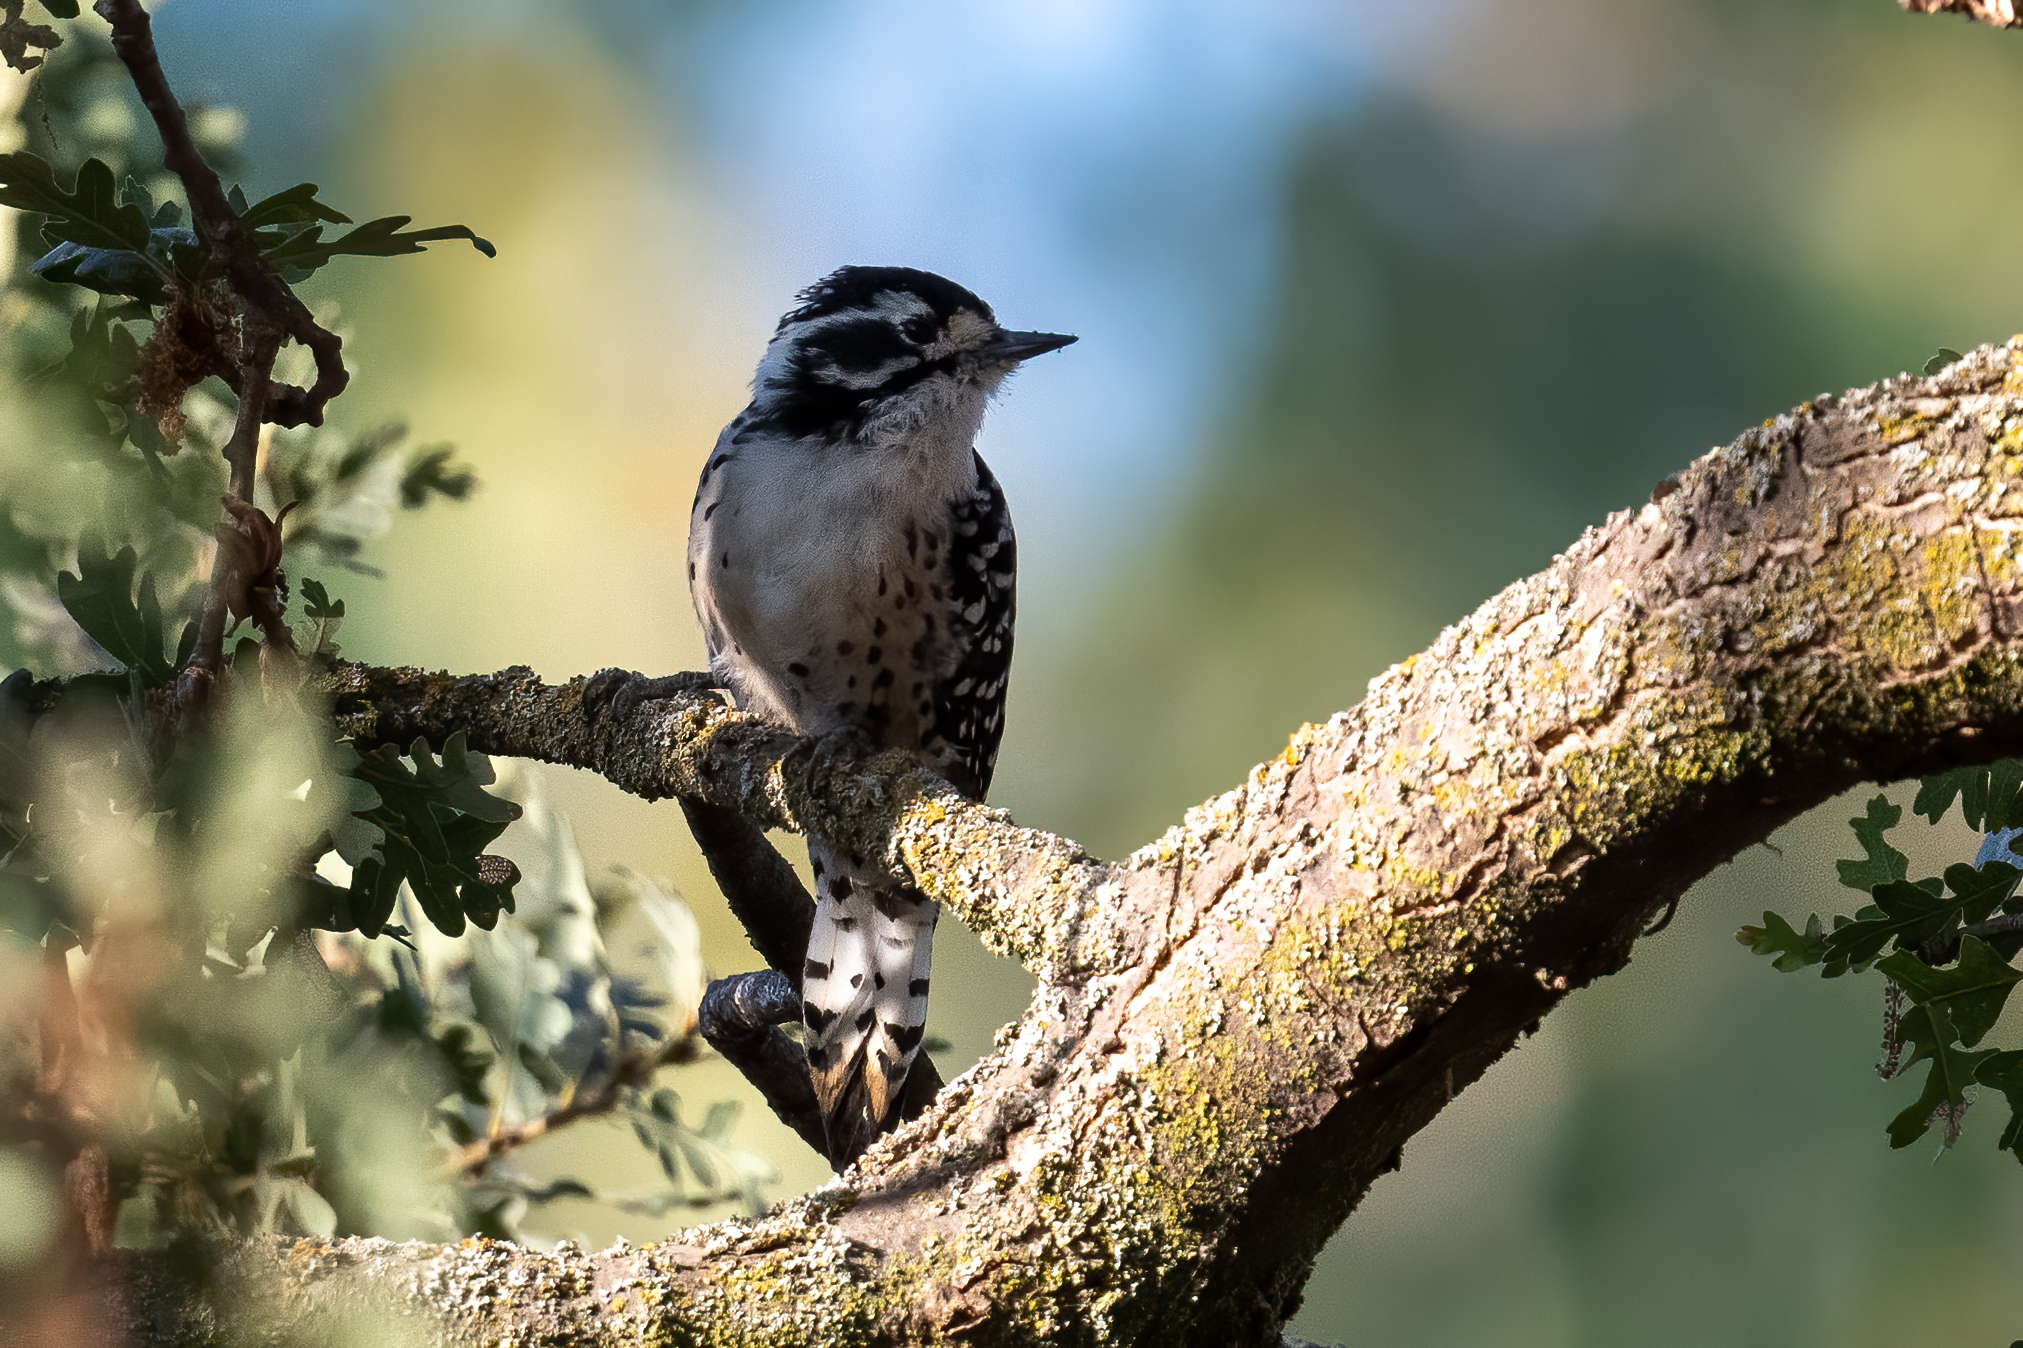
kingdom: Animalia
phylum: Chordata
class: Aves
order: Piciformes
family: Picidae
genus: Dryobates
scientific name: Dryobates nuttallii
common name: Nuttall's woodpecker
